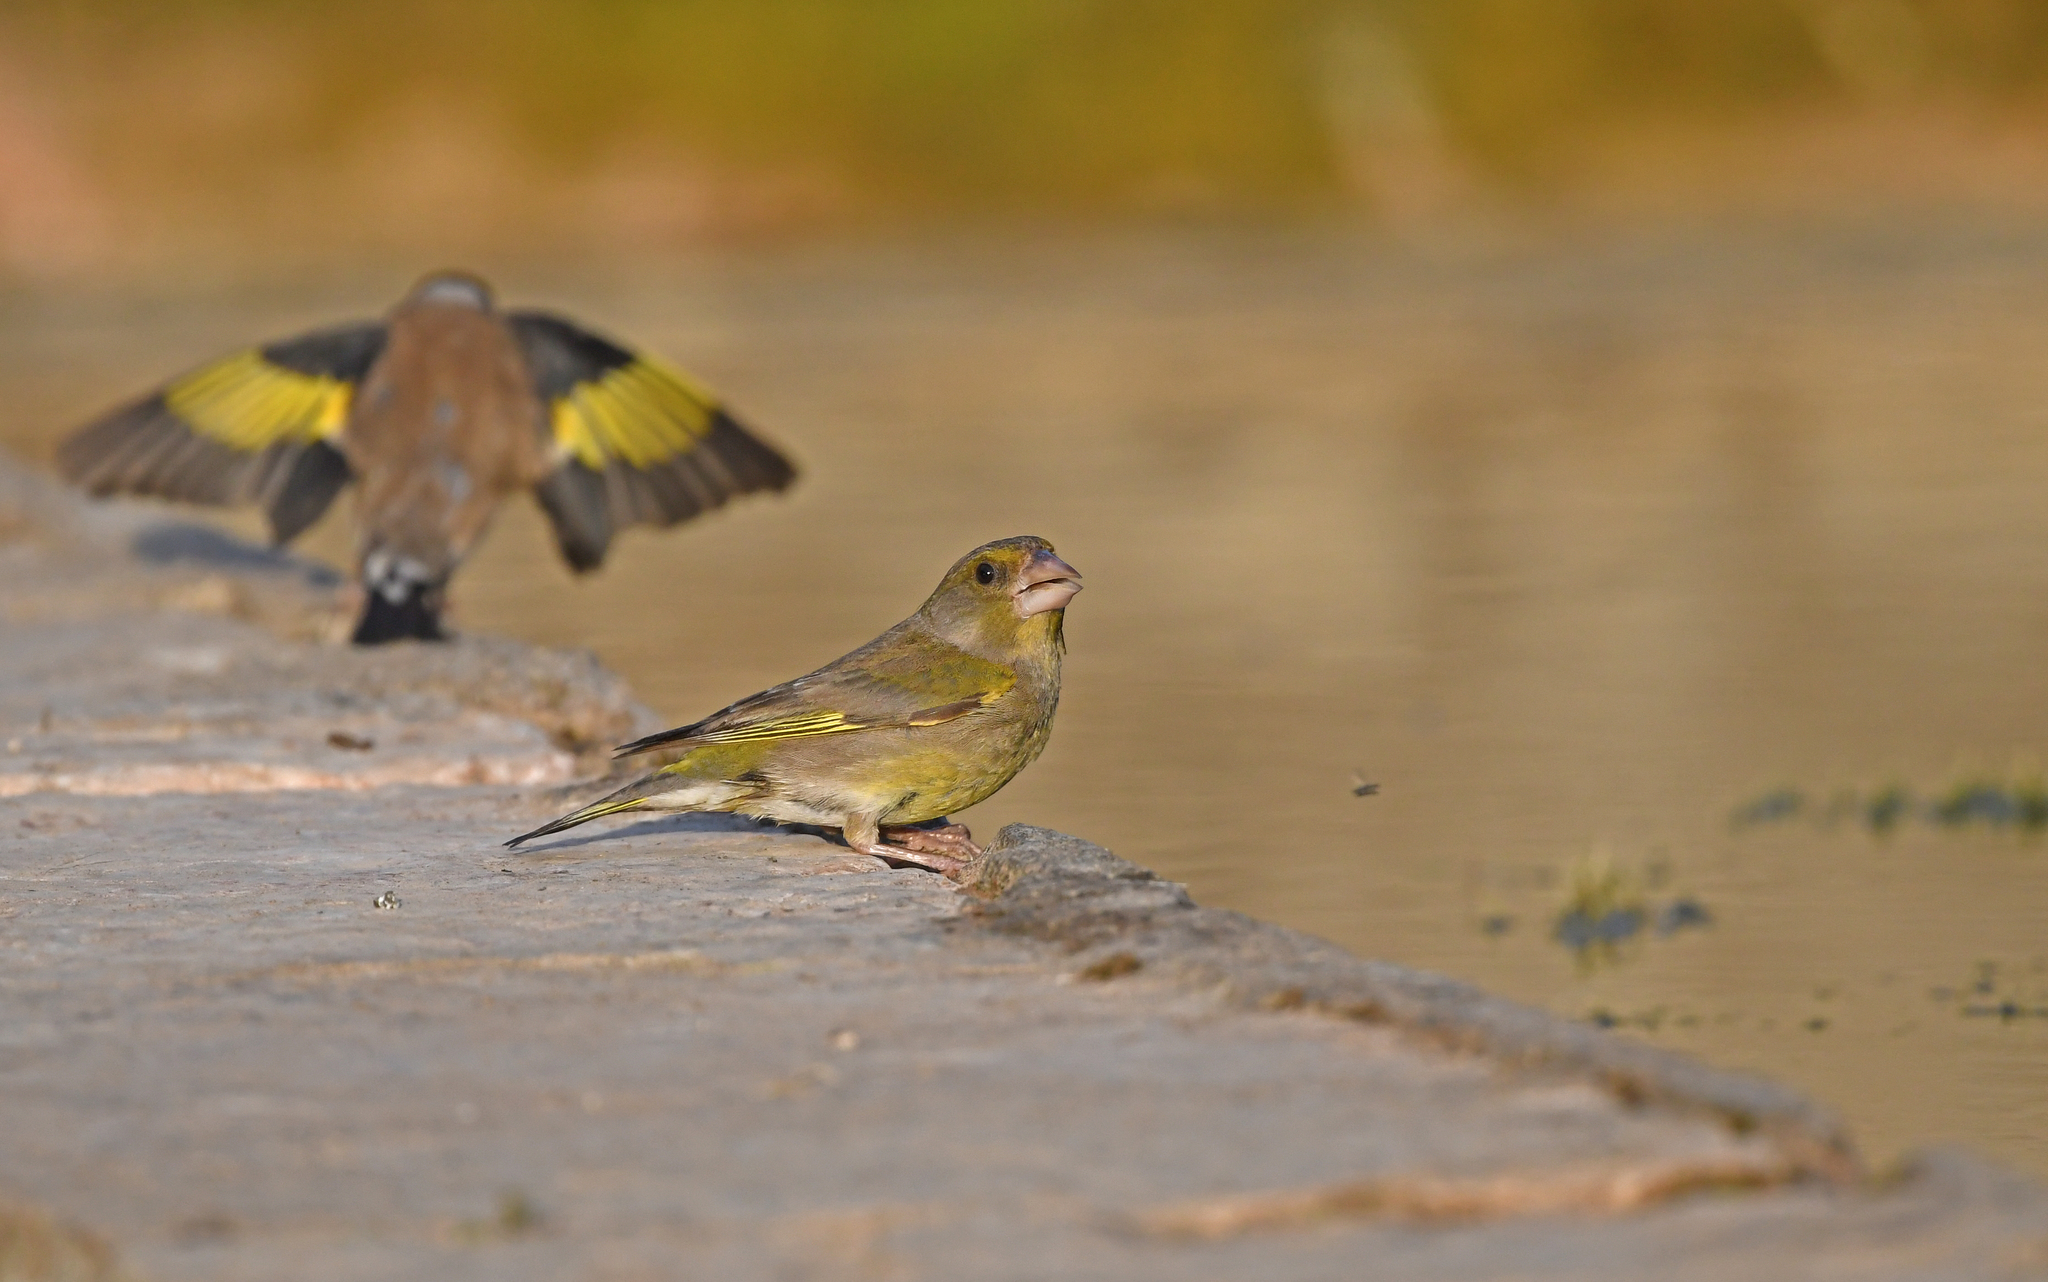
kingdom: Plantae
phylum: Tracheophyta
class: Liliopsida
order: Poales
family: Poaceae
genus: Chloris
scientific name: Chloris chloris
